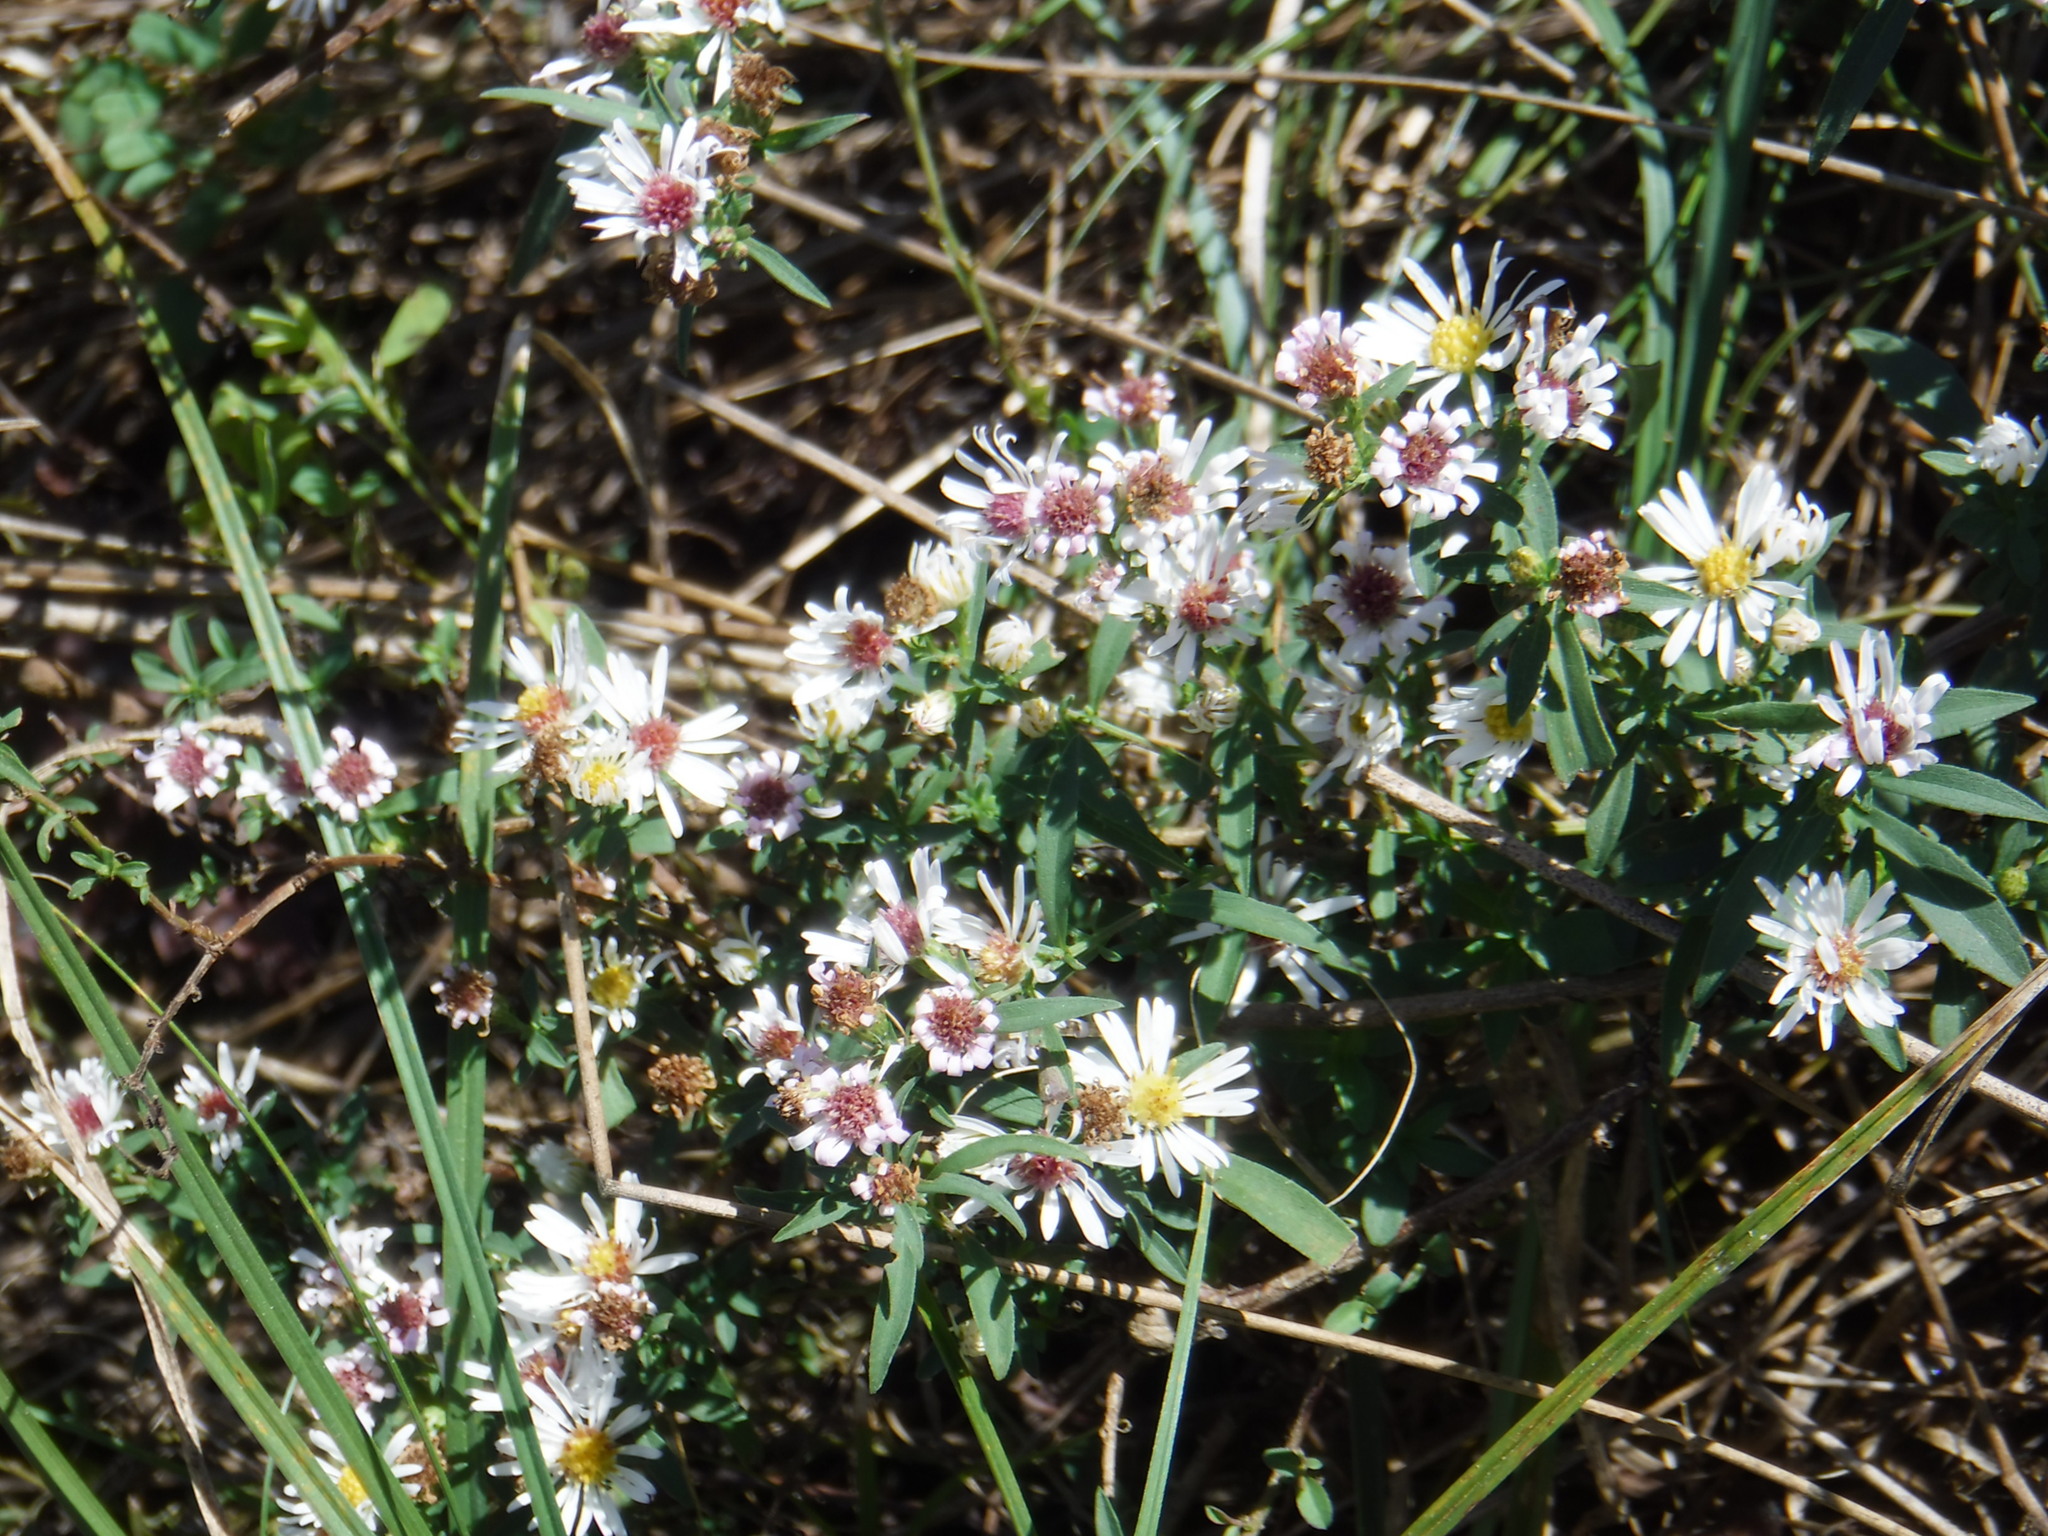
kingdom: Plantae
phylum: Tracheophyta
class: Magnoliopsida
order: Asterales
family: Asteraceae
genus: Symphyotrichum
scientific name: Symphyotrichum dumosum
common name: Bushy aster
